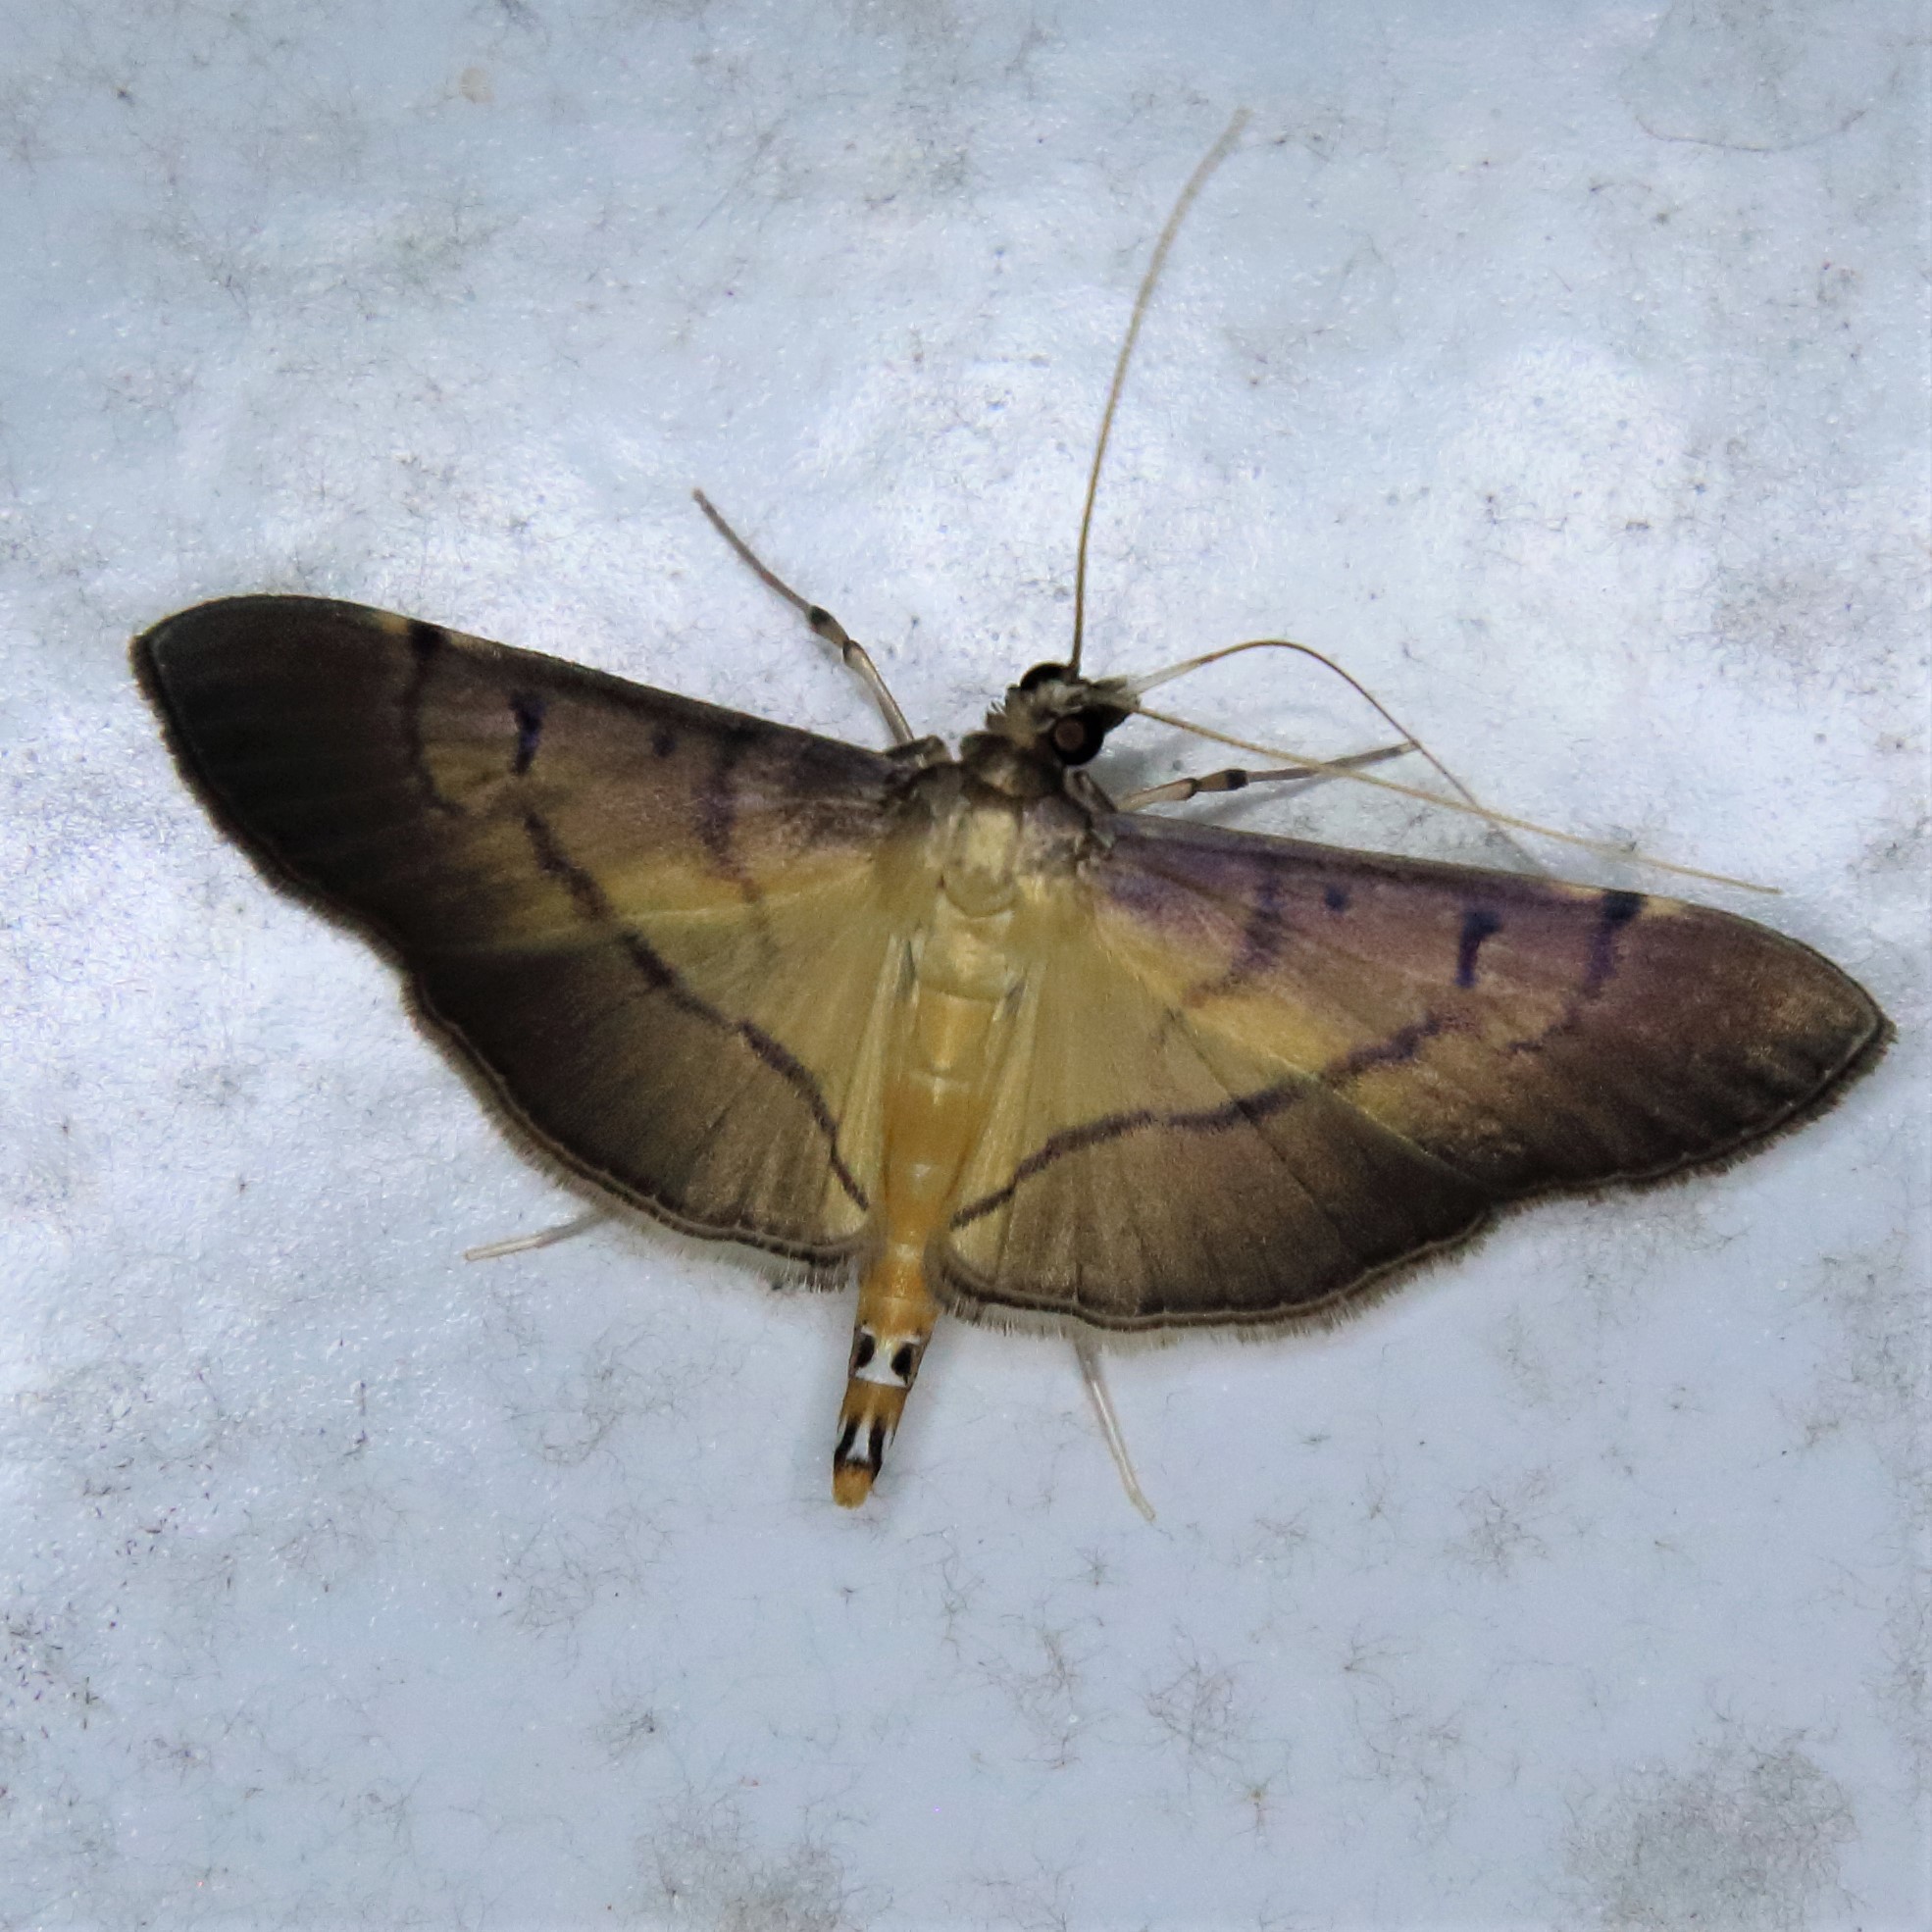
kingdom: Animalia
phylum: Arthropoda
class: Insecta
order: Lepidoptera
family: Crambidae
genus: Bacotoma
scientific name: Bacotoma camillusalis
